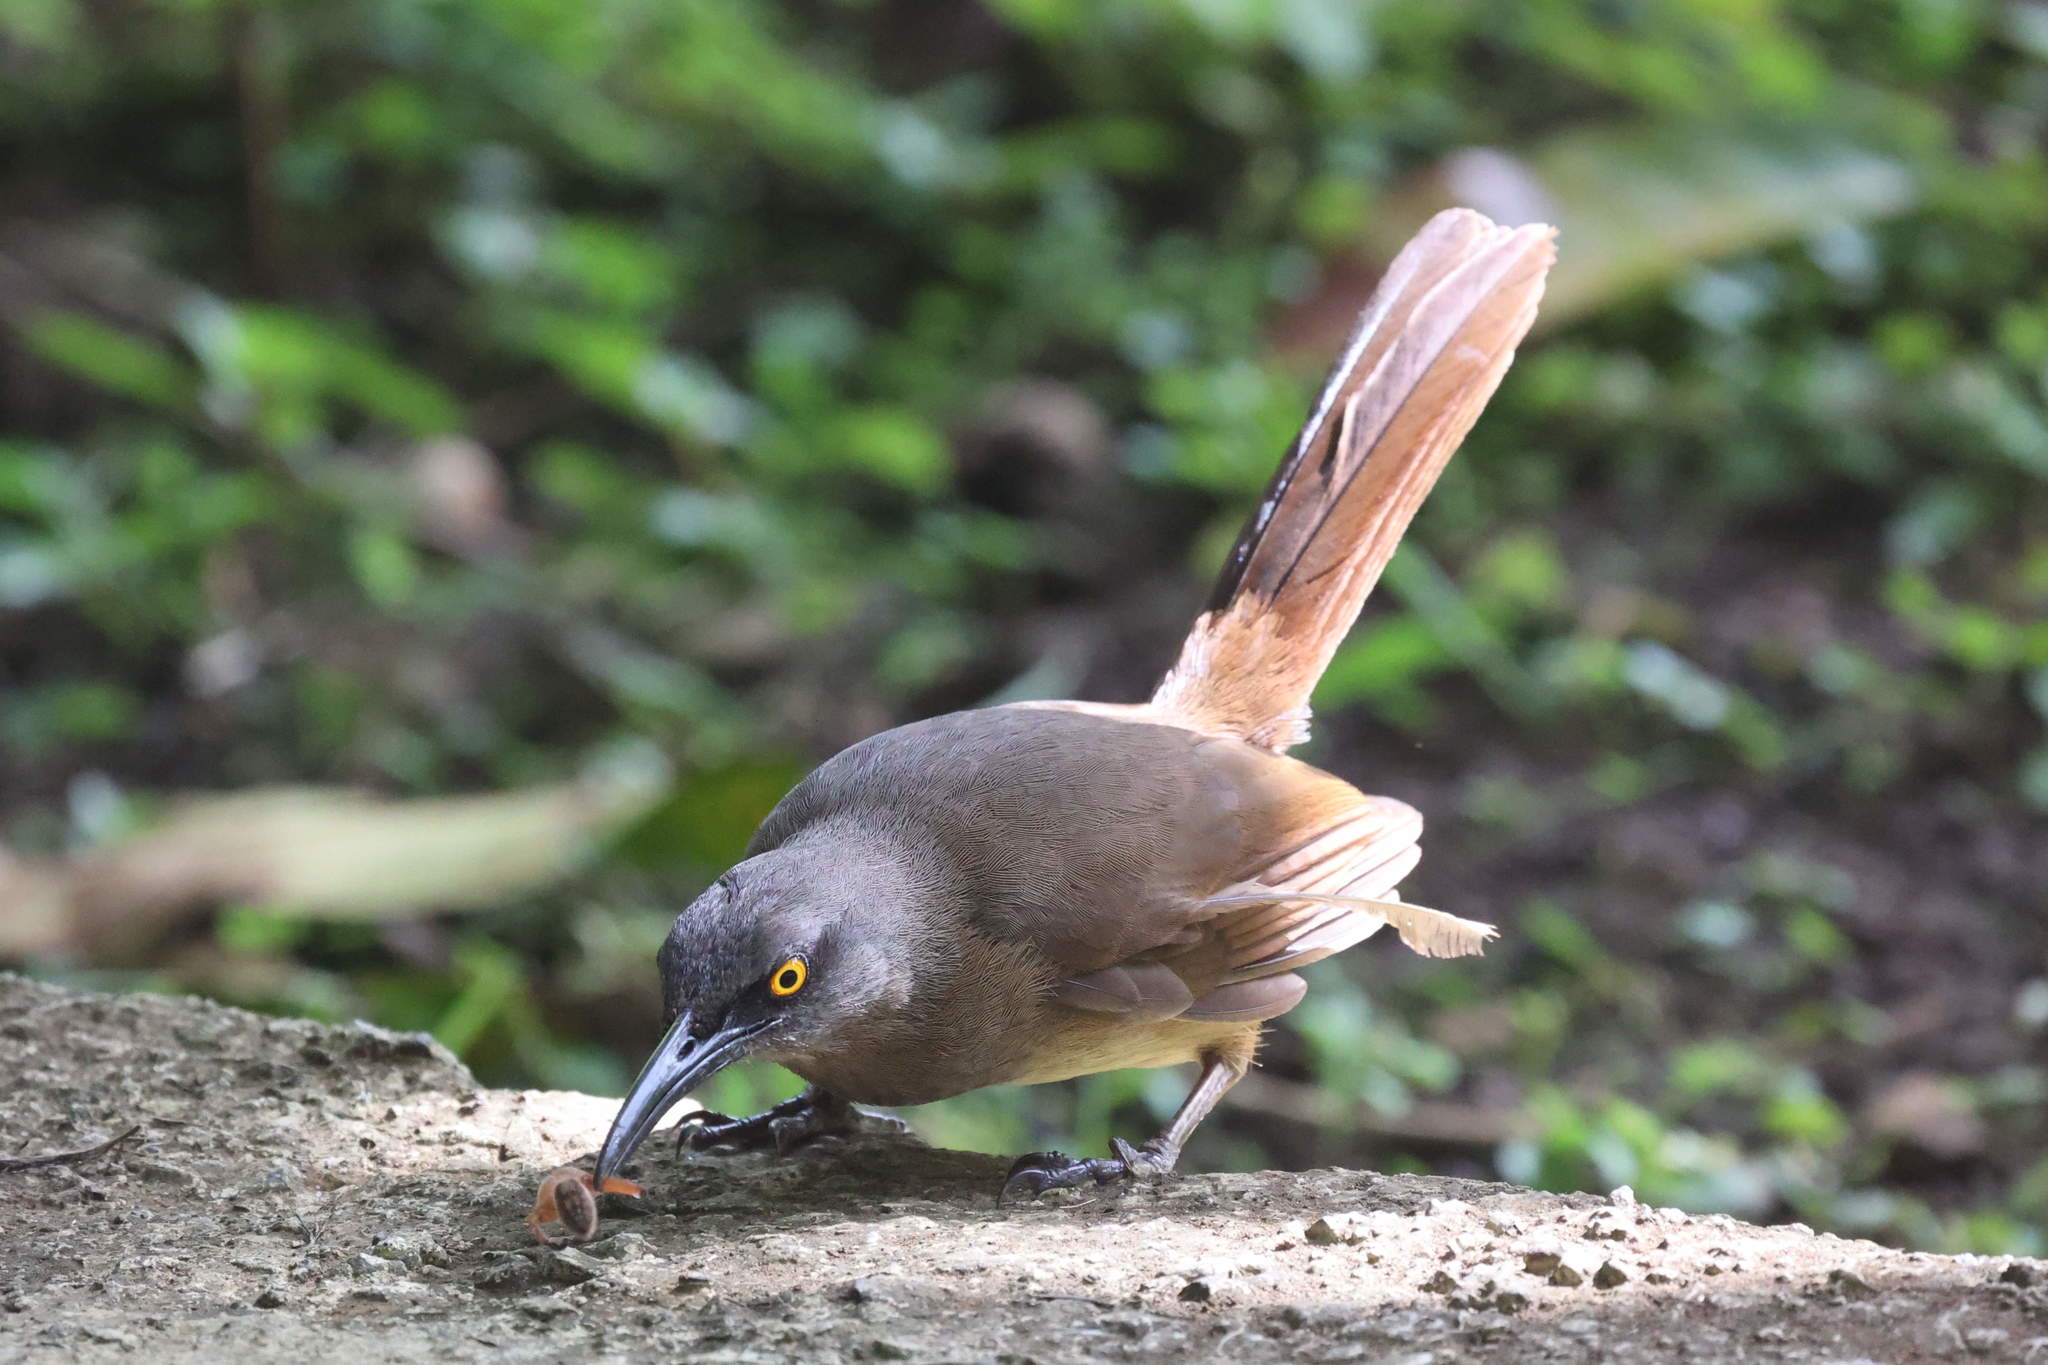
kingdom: Animalia
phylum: Chordata
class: Aves
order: Passeriformes
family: Mimidae
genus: Cinclocerthia
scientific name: Cinclocerthia ruficauda
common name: Brown trembler
